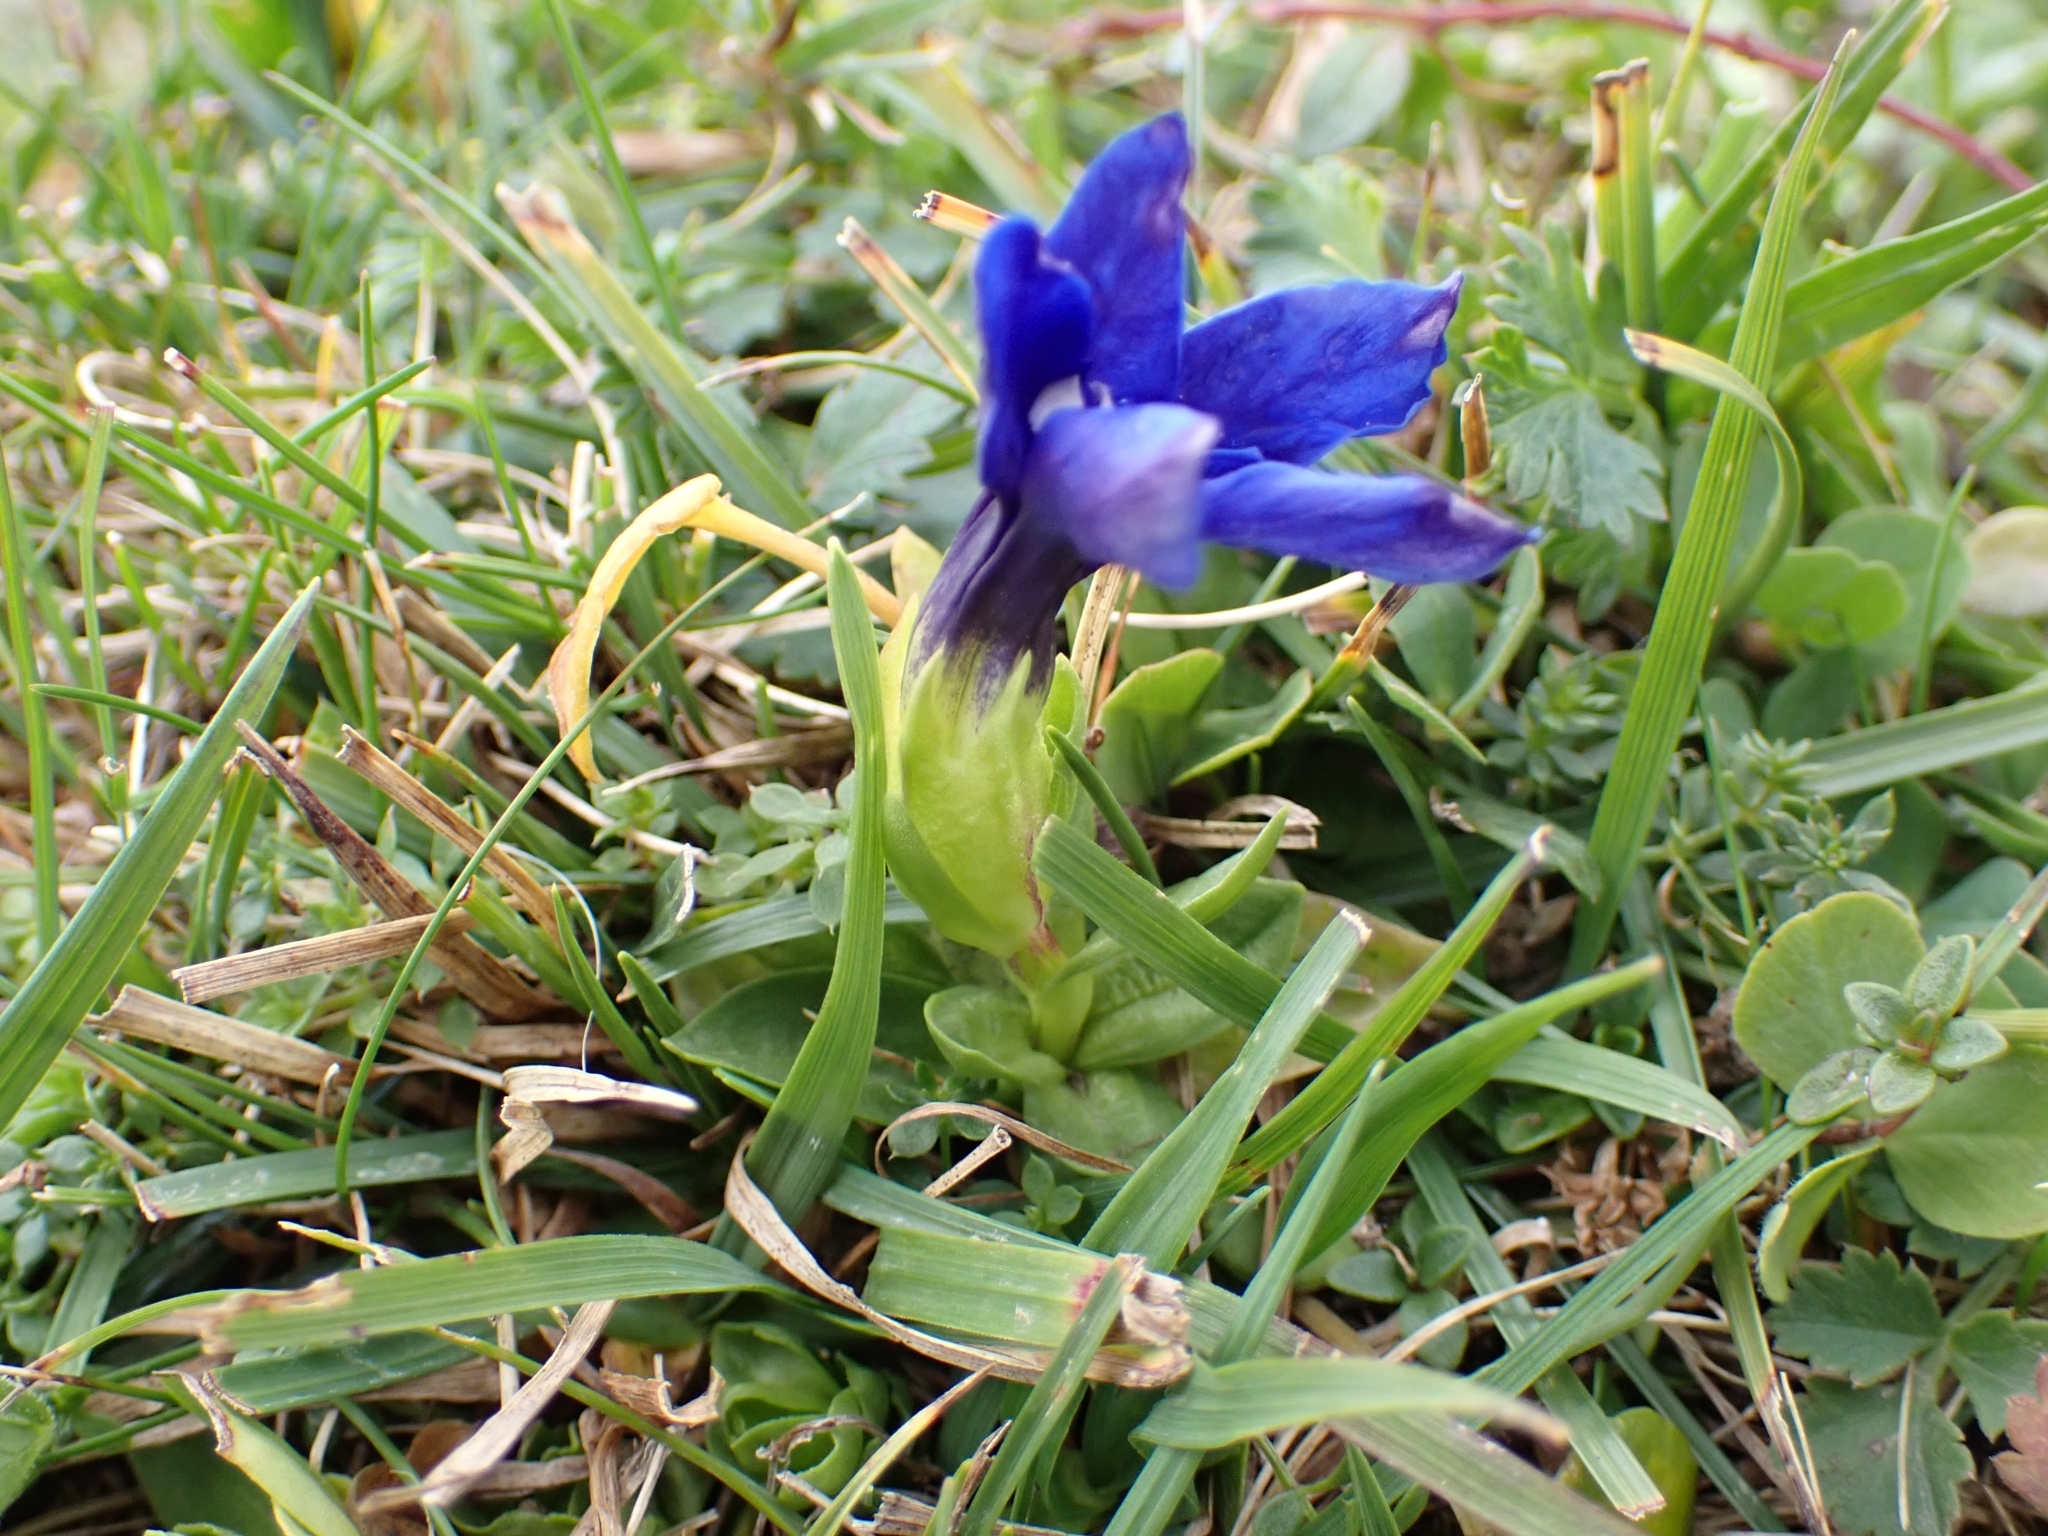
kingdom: Plantae
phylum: Tracheophyta
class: Magnoliopsida
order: Gentianales
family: Gentianaceae
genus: Gentiana
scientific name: Gentiana verna
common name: Spring gentian
